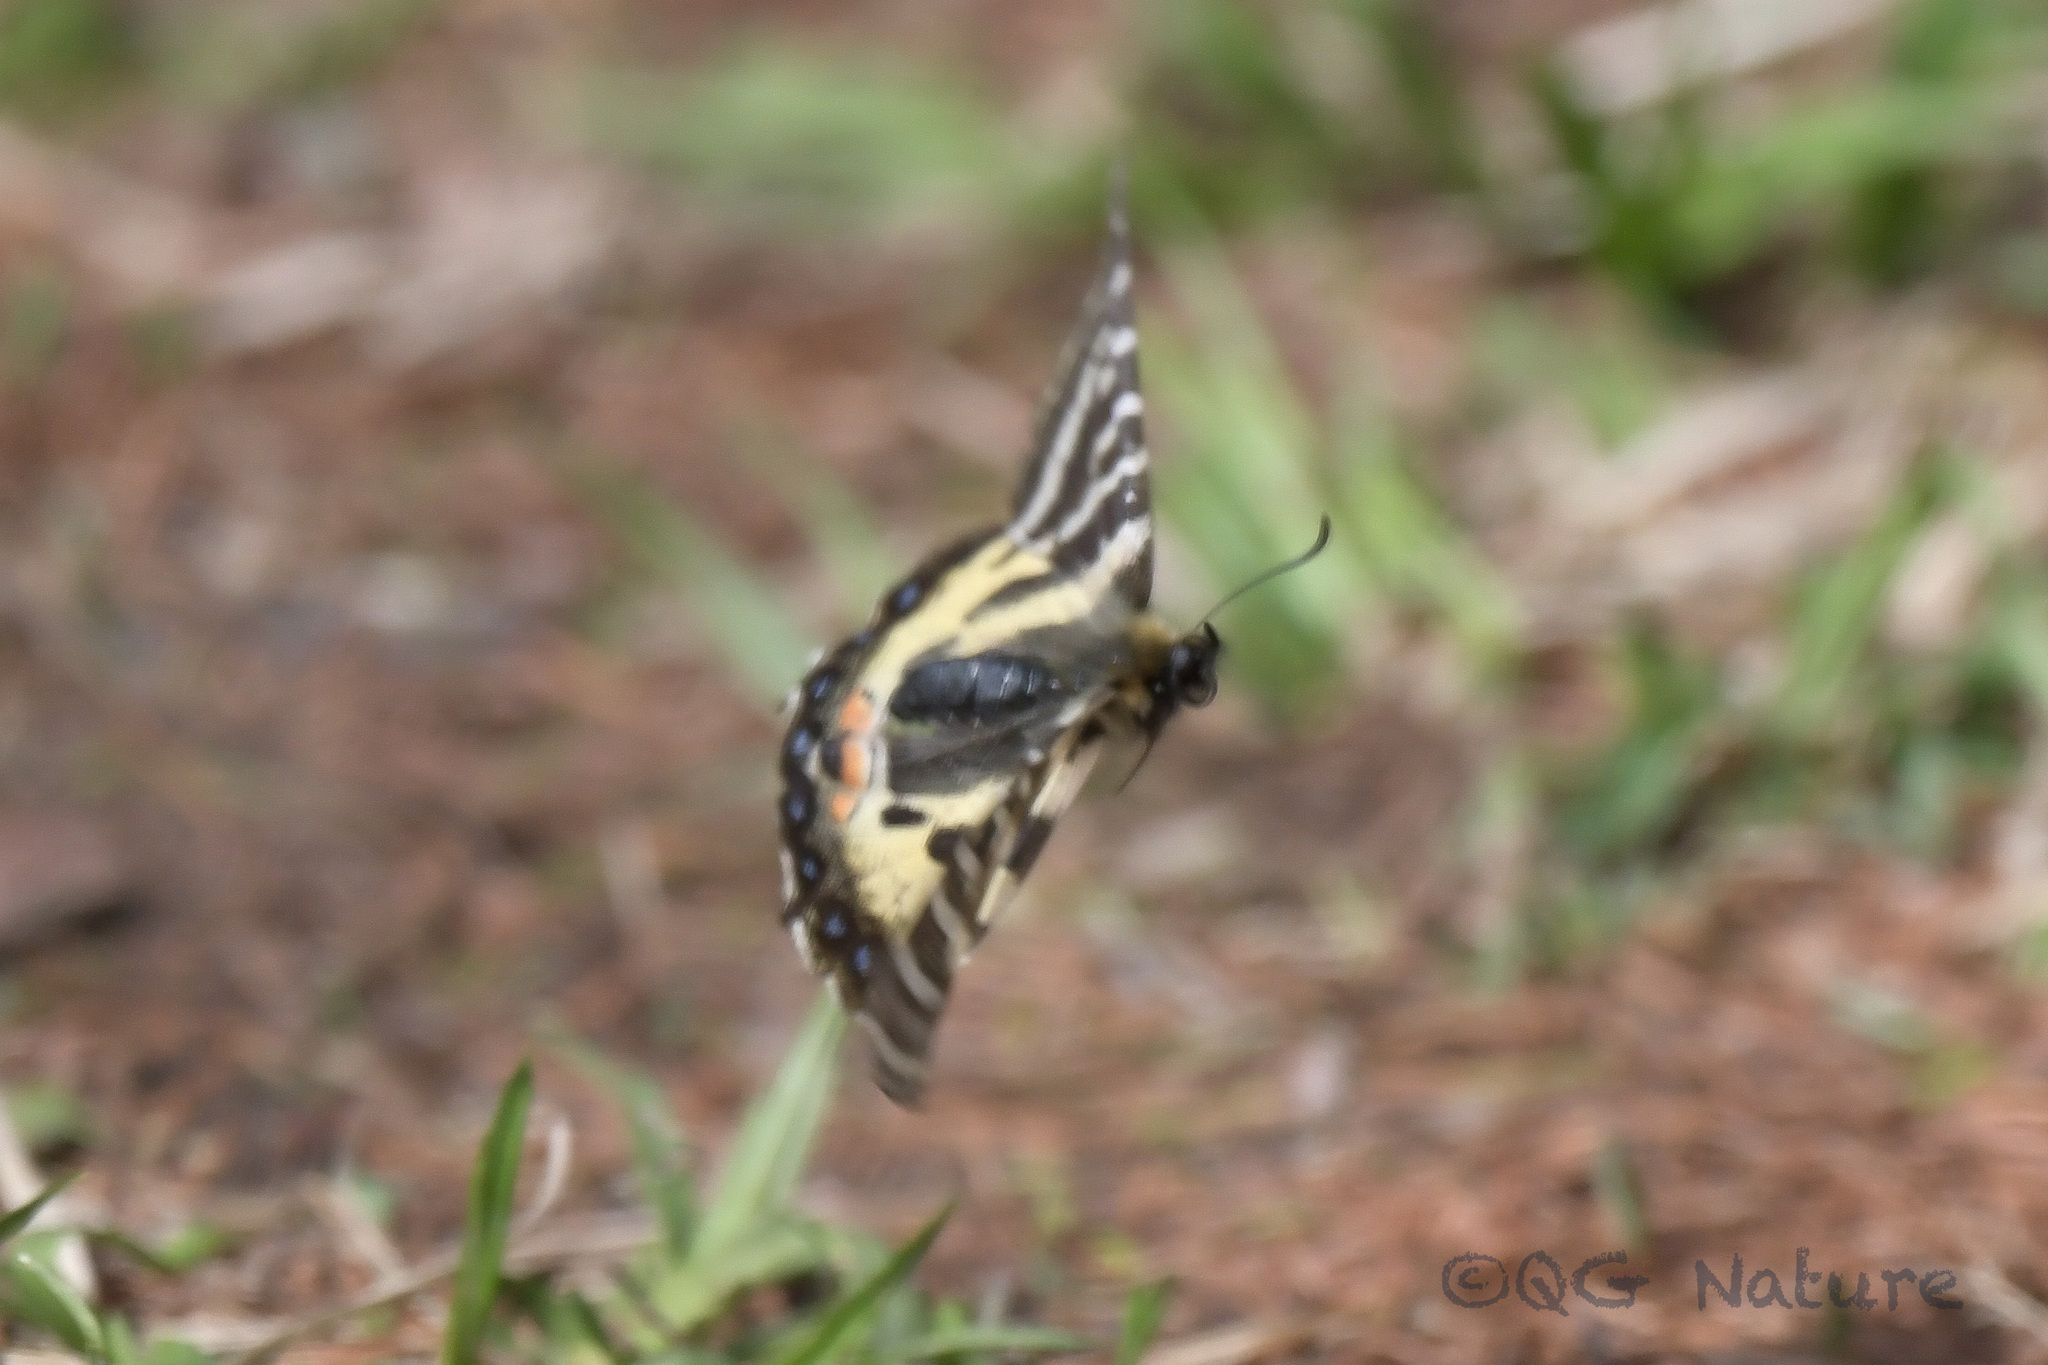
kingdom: Animalia
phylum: Arthropoda
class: Insecta
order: Lepidoptera
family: Papilionidae
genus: Luehdorfia
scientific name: Luehdorfia puziloi
